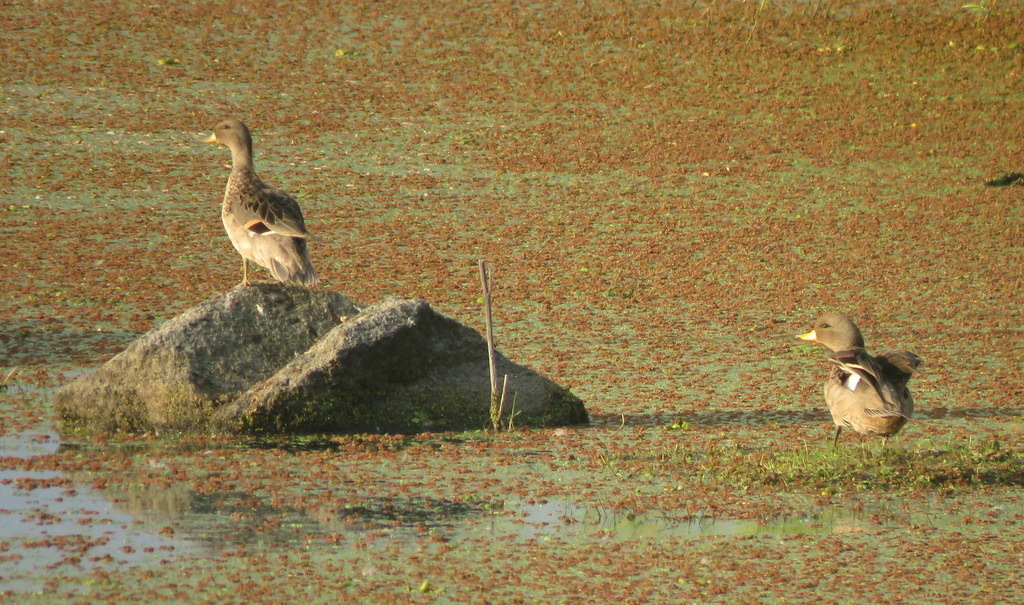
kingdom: Animalia
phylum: Chordata
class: Aves
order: Anseriformes
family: Anatidae
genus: Anas
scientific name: Anas flavirostris
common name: Yellow-billed teal
